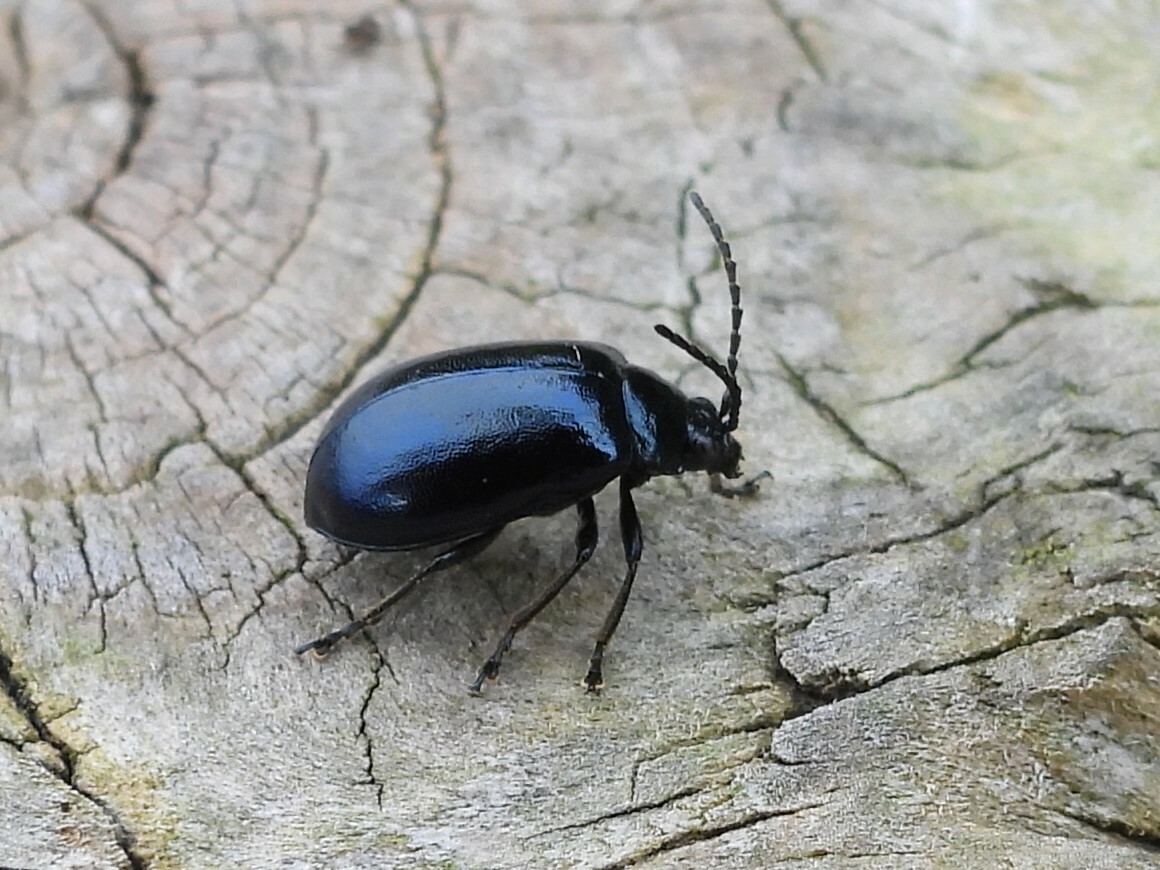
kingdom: Animalia
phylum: Arthropoda
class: Insecta
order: Coleoptera
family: Chrysomelidae
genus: Agelastica
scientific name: Agelastica alni
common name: Alder leaf beetle
